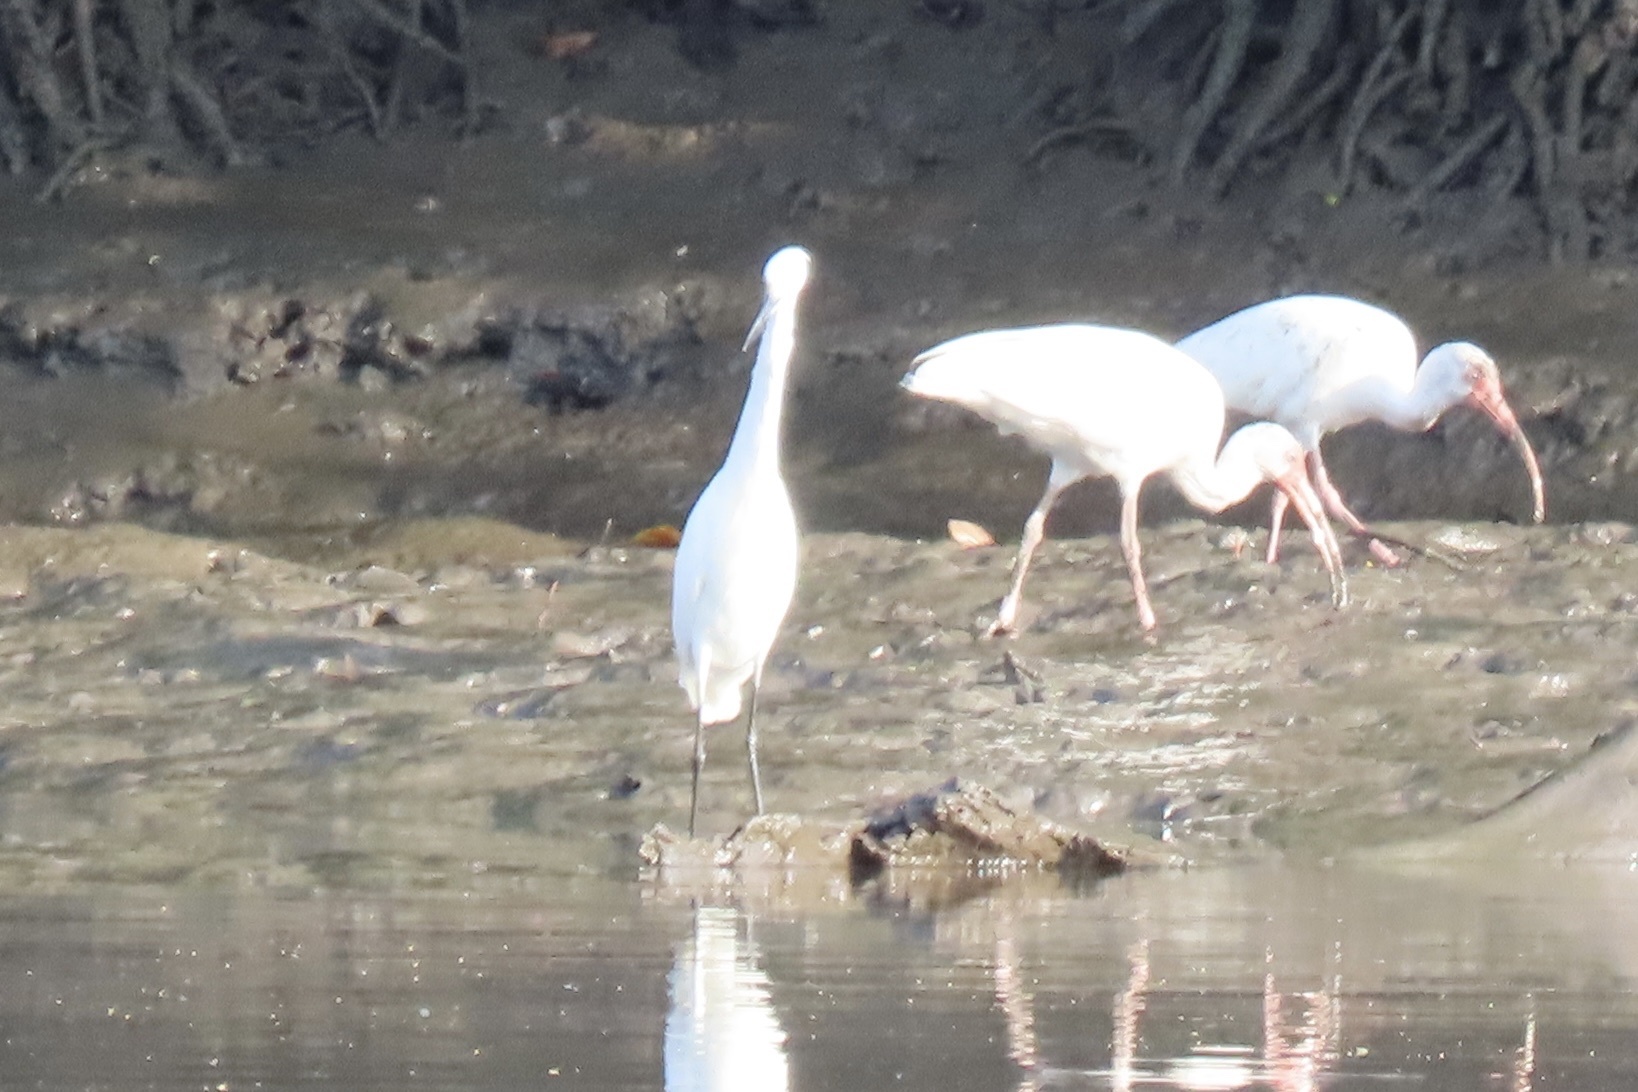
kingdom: Animalia
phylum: Chordata
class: Aves
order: Pelecaniformes
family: Ardeidae
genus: Egretta
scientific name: Egretta thula
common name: Snowy egret
